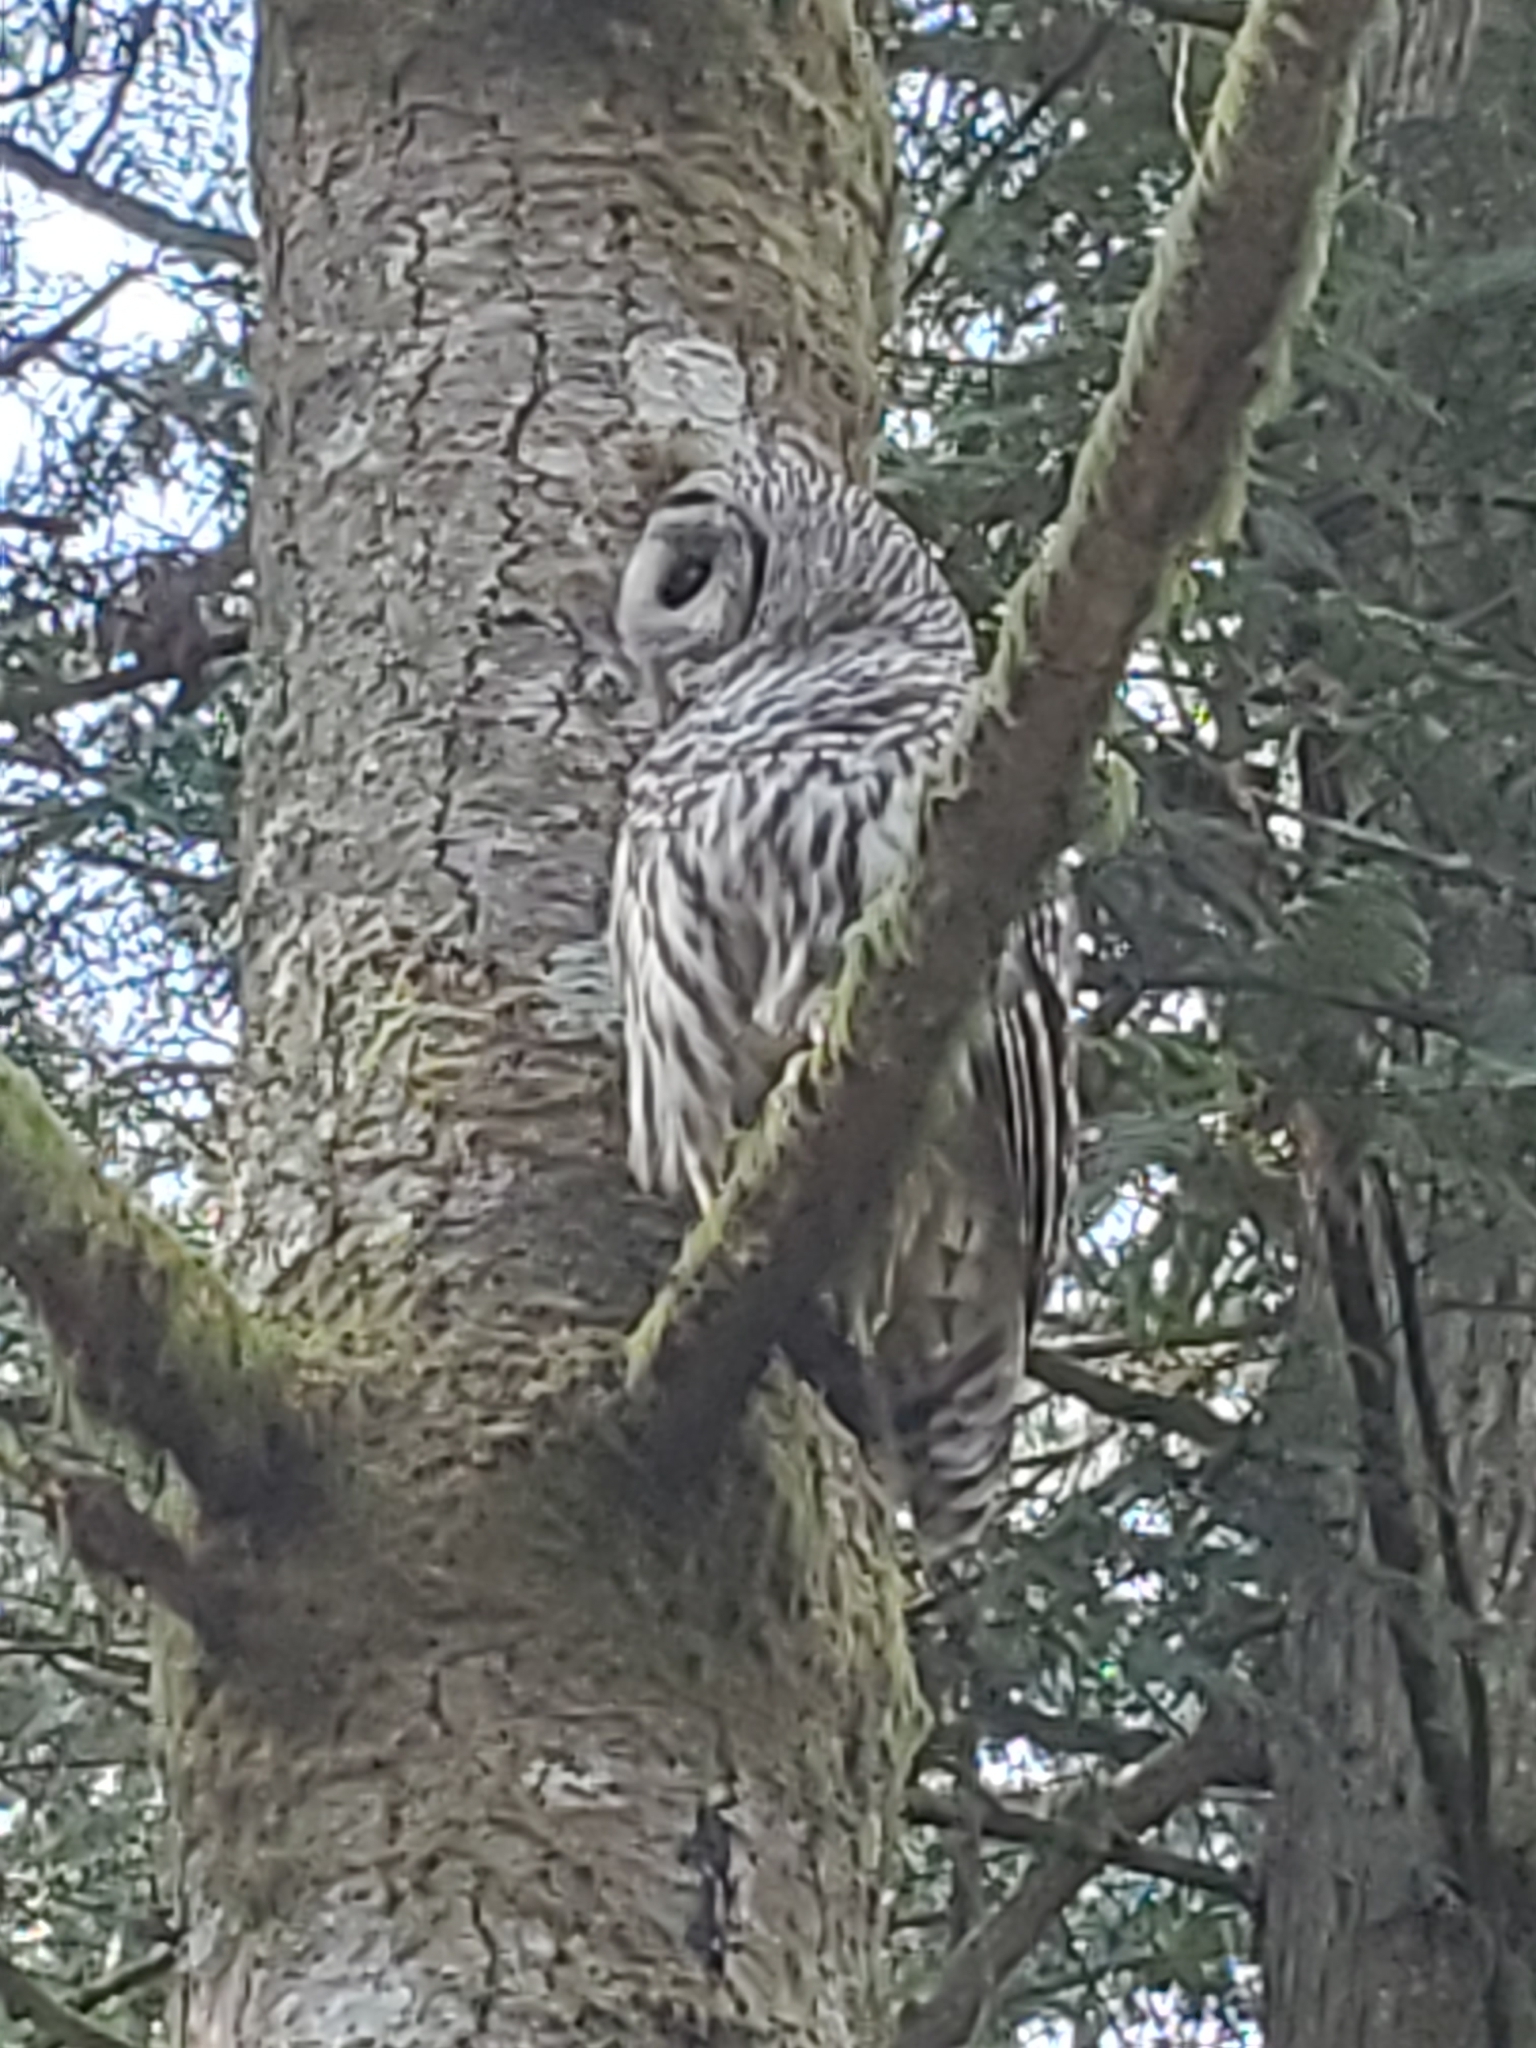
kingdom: Animalia
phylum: Chordata
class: Aves
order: Strigiformes
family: Strigidae
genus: Strix
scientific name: Strix varia
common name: Barred owl
